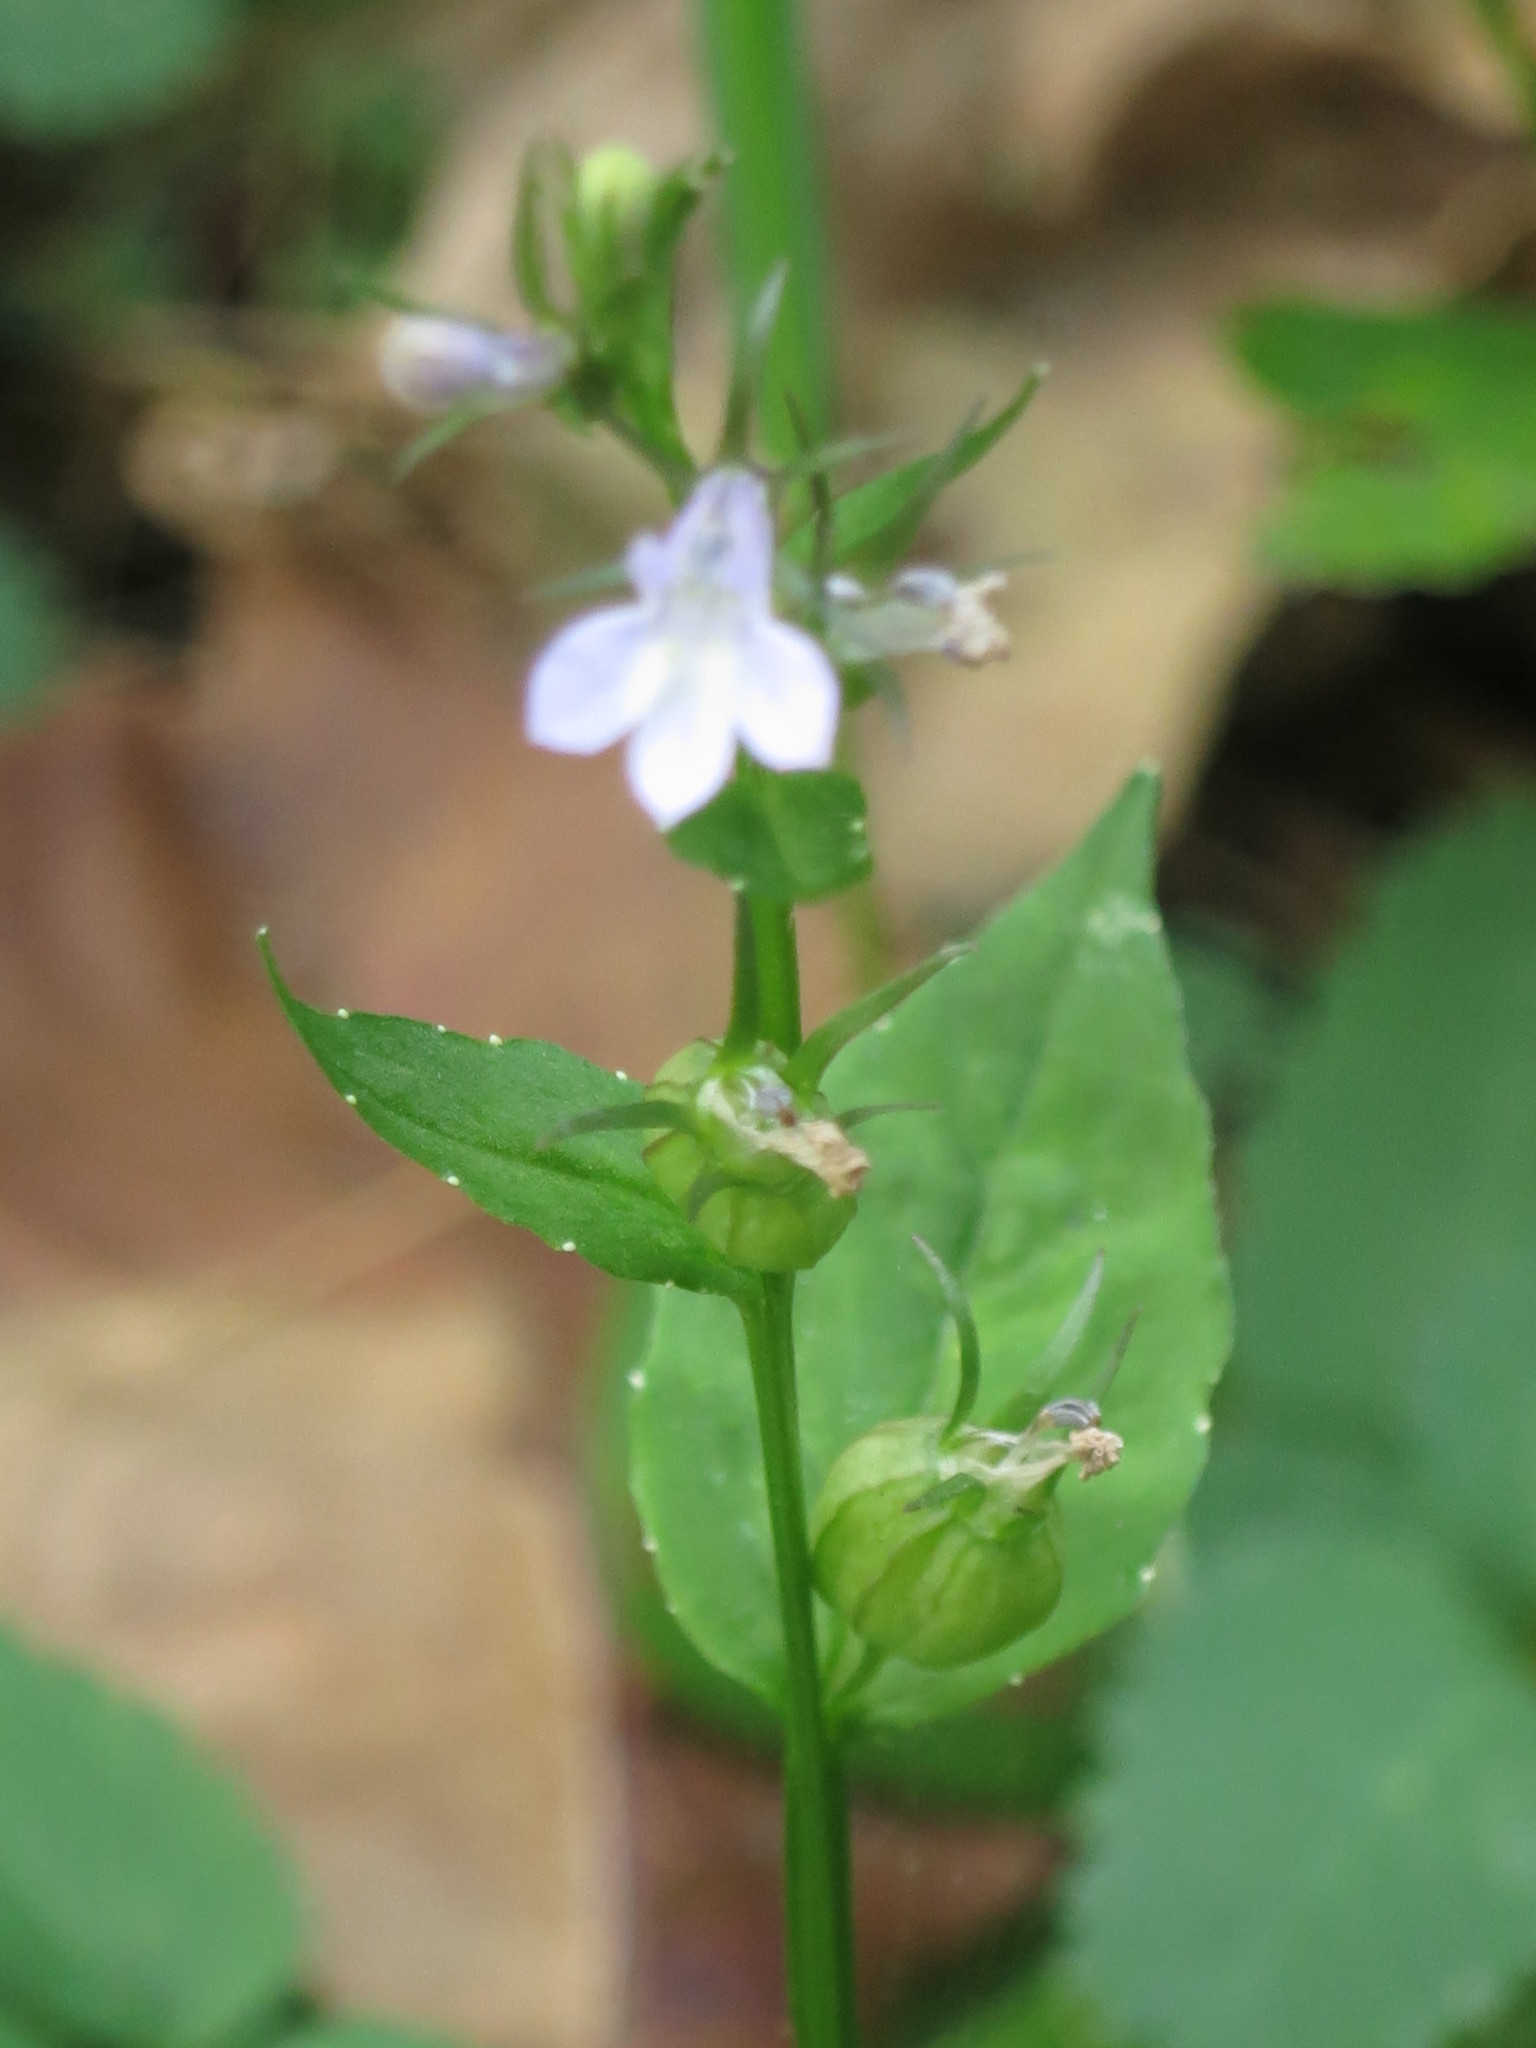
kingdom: Plantae
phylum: Tracheophyta
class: Magnoliopsida
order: Asterales
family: Campanulaceae
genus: Lobelia
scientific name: Lobelia inflata
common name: Indian tobacco
